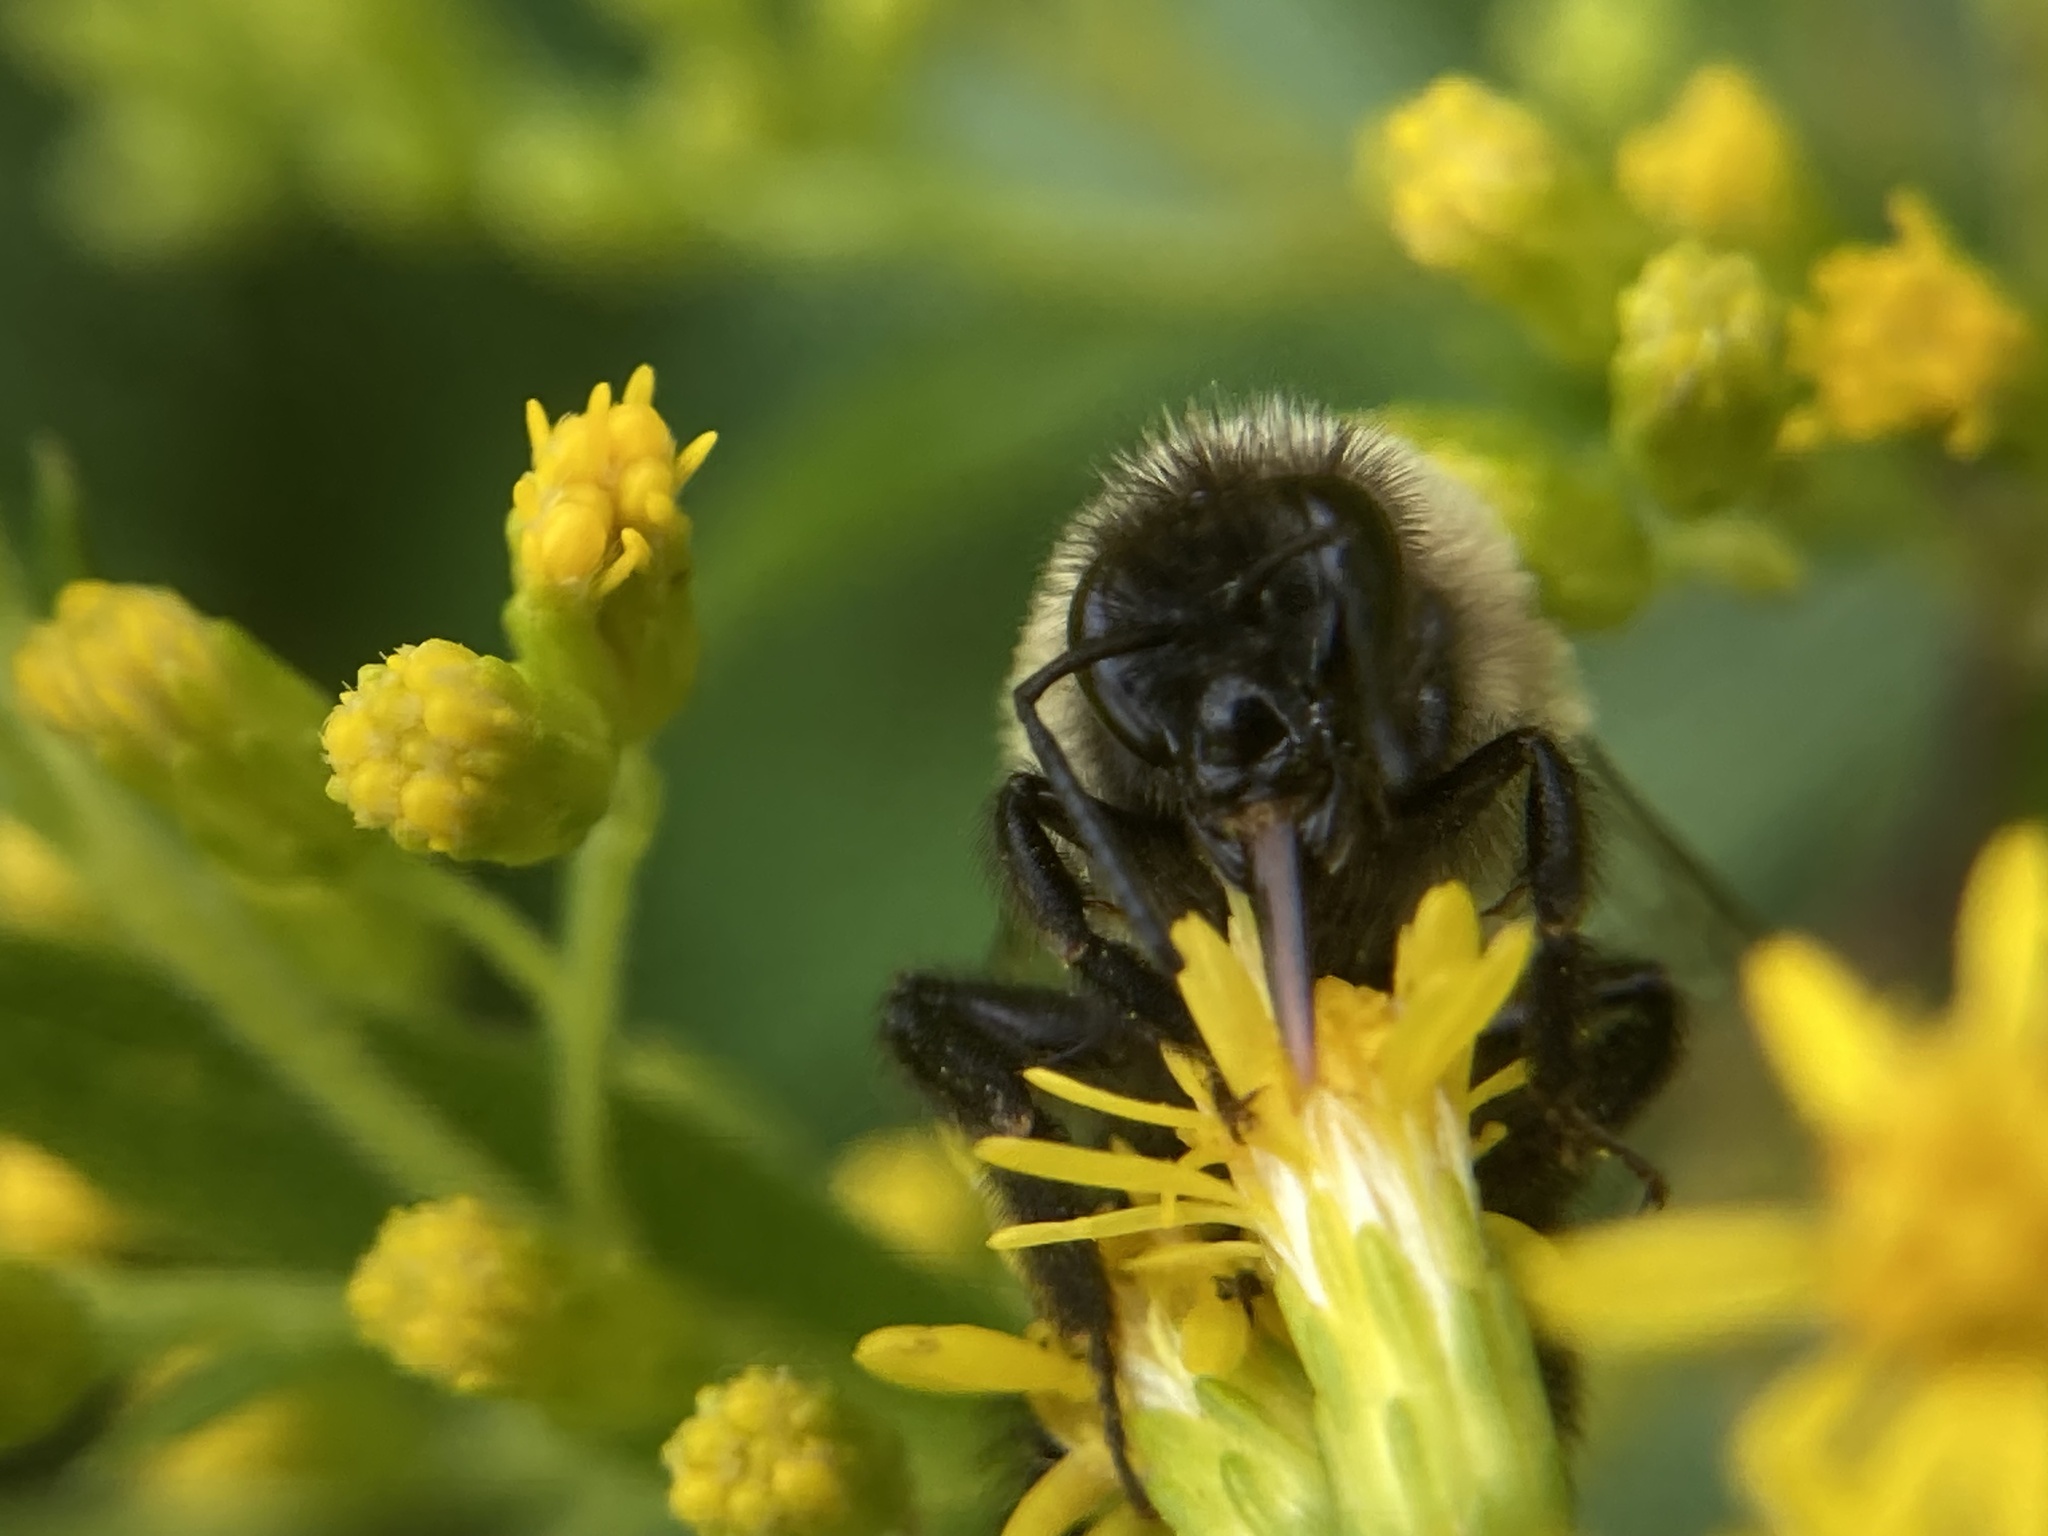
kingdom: Animalia
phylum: Arthropoda
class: Insecta
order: Hymenoptera
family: Apidae
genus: Bombus
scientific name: Bombus impatiens
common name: Common eastern bumble bee
